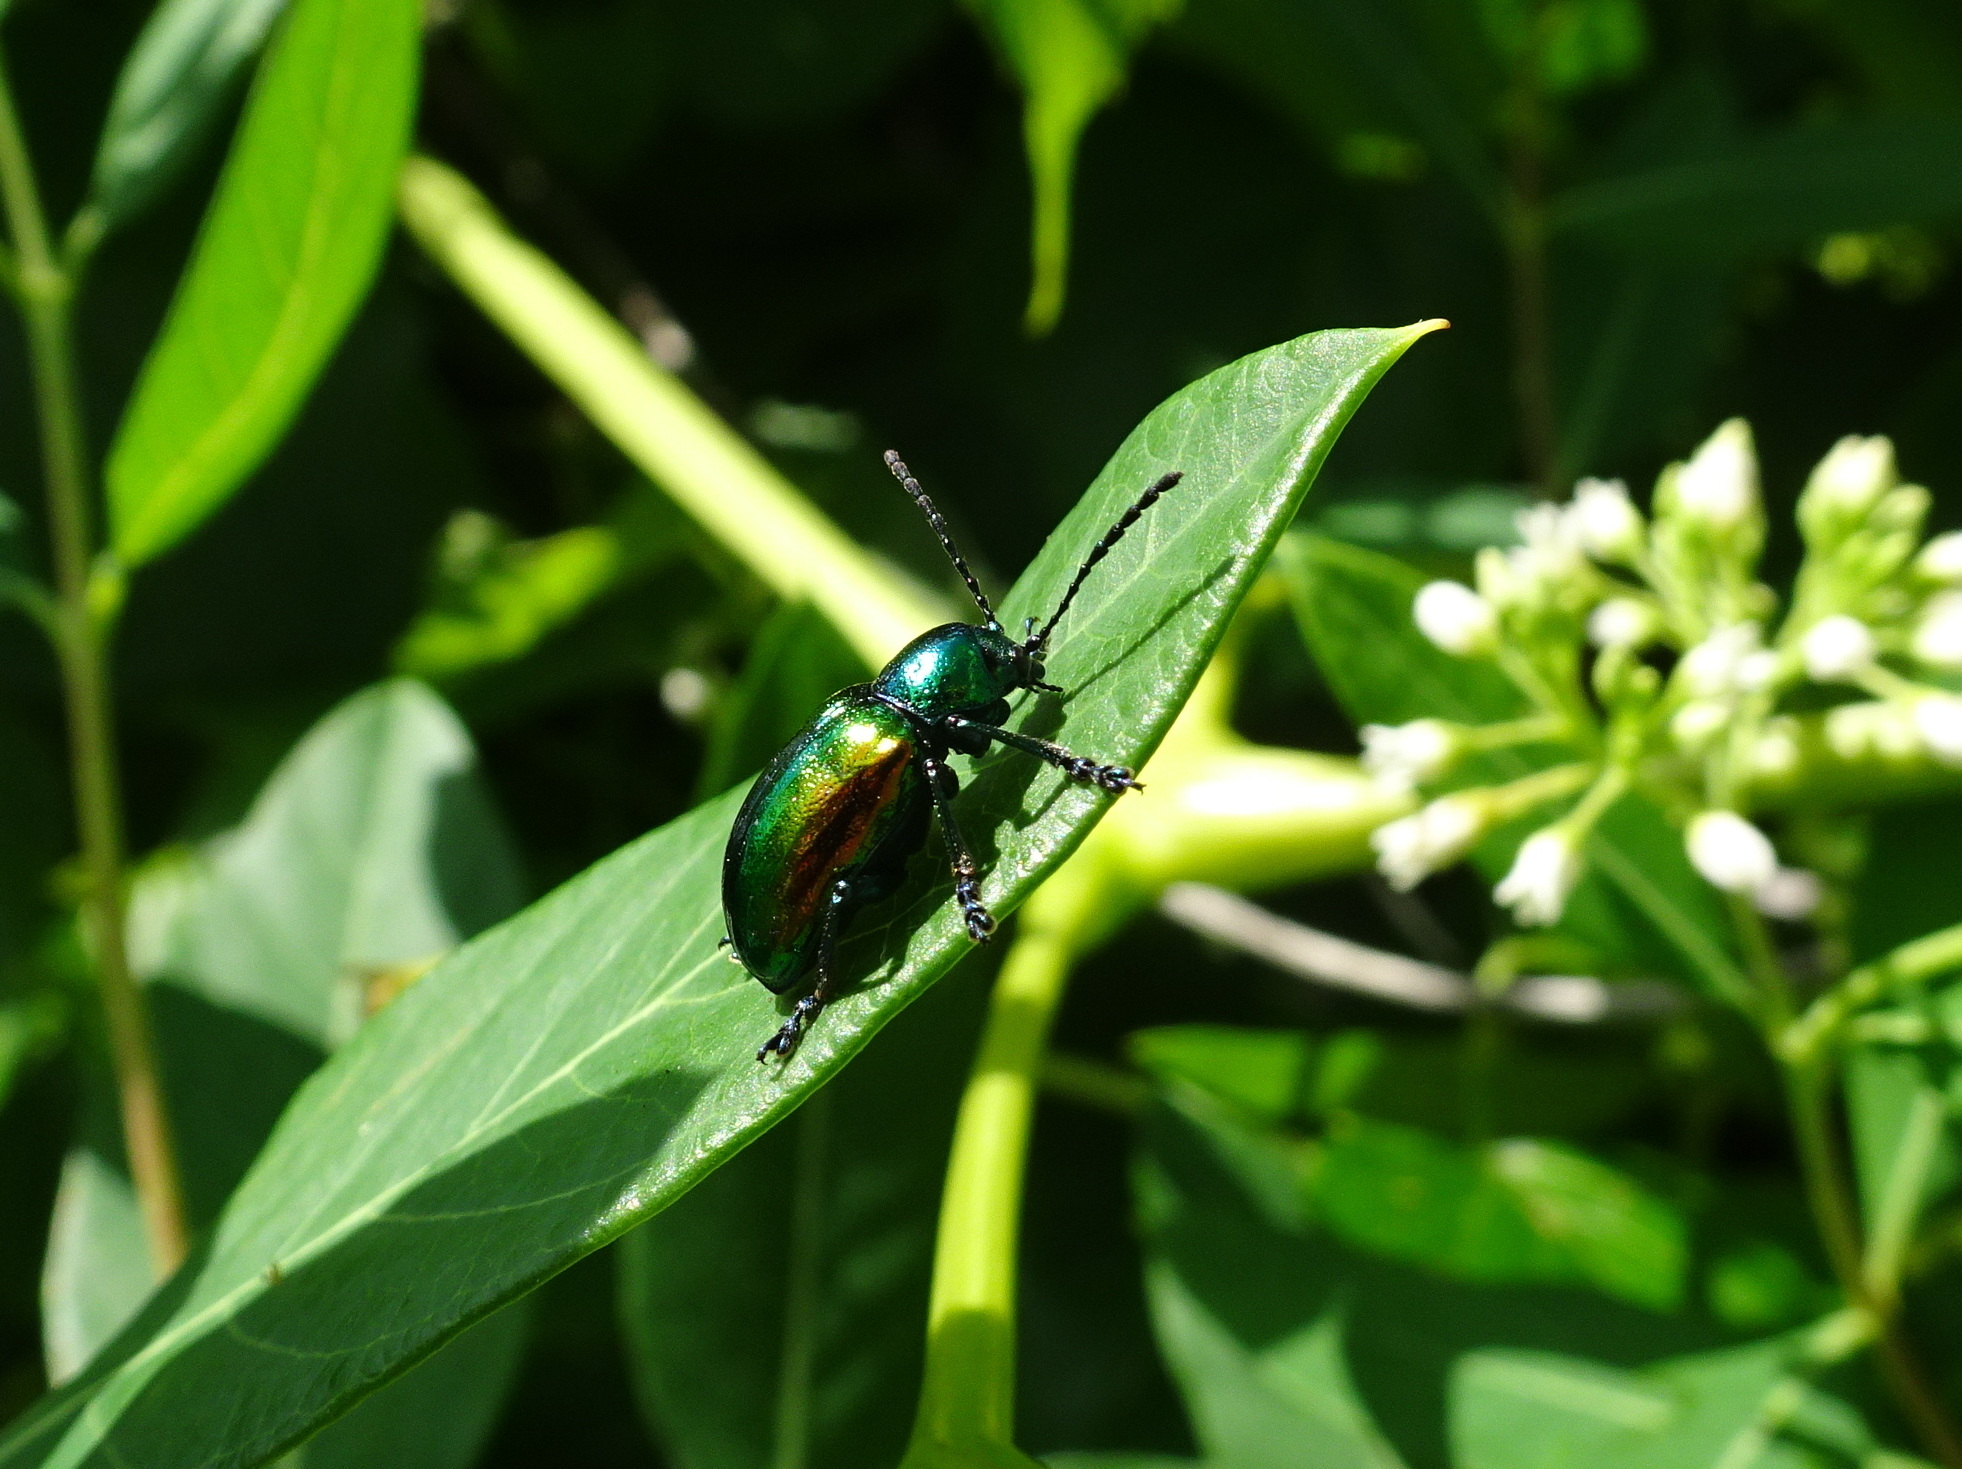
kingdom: Animalia
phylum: Arthropoda
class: Insecta
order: Coleoptera
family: Chrysomelidae
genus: Chrysochus
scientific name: Chrysochus auratus
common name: Dogbane leaf beetle
